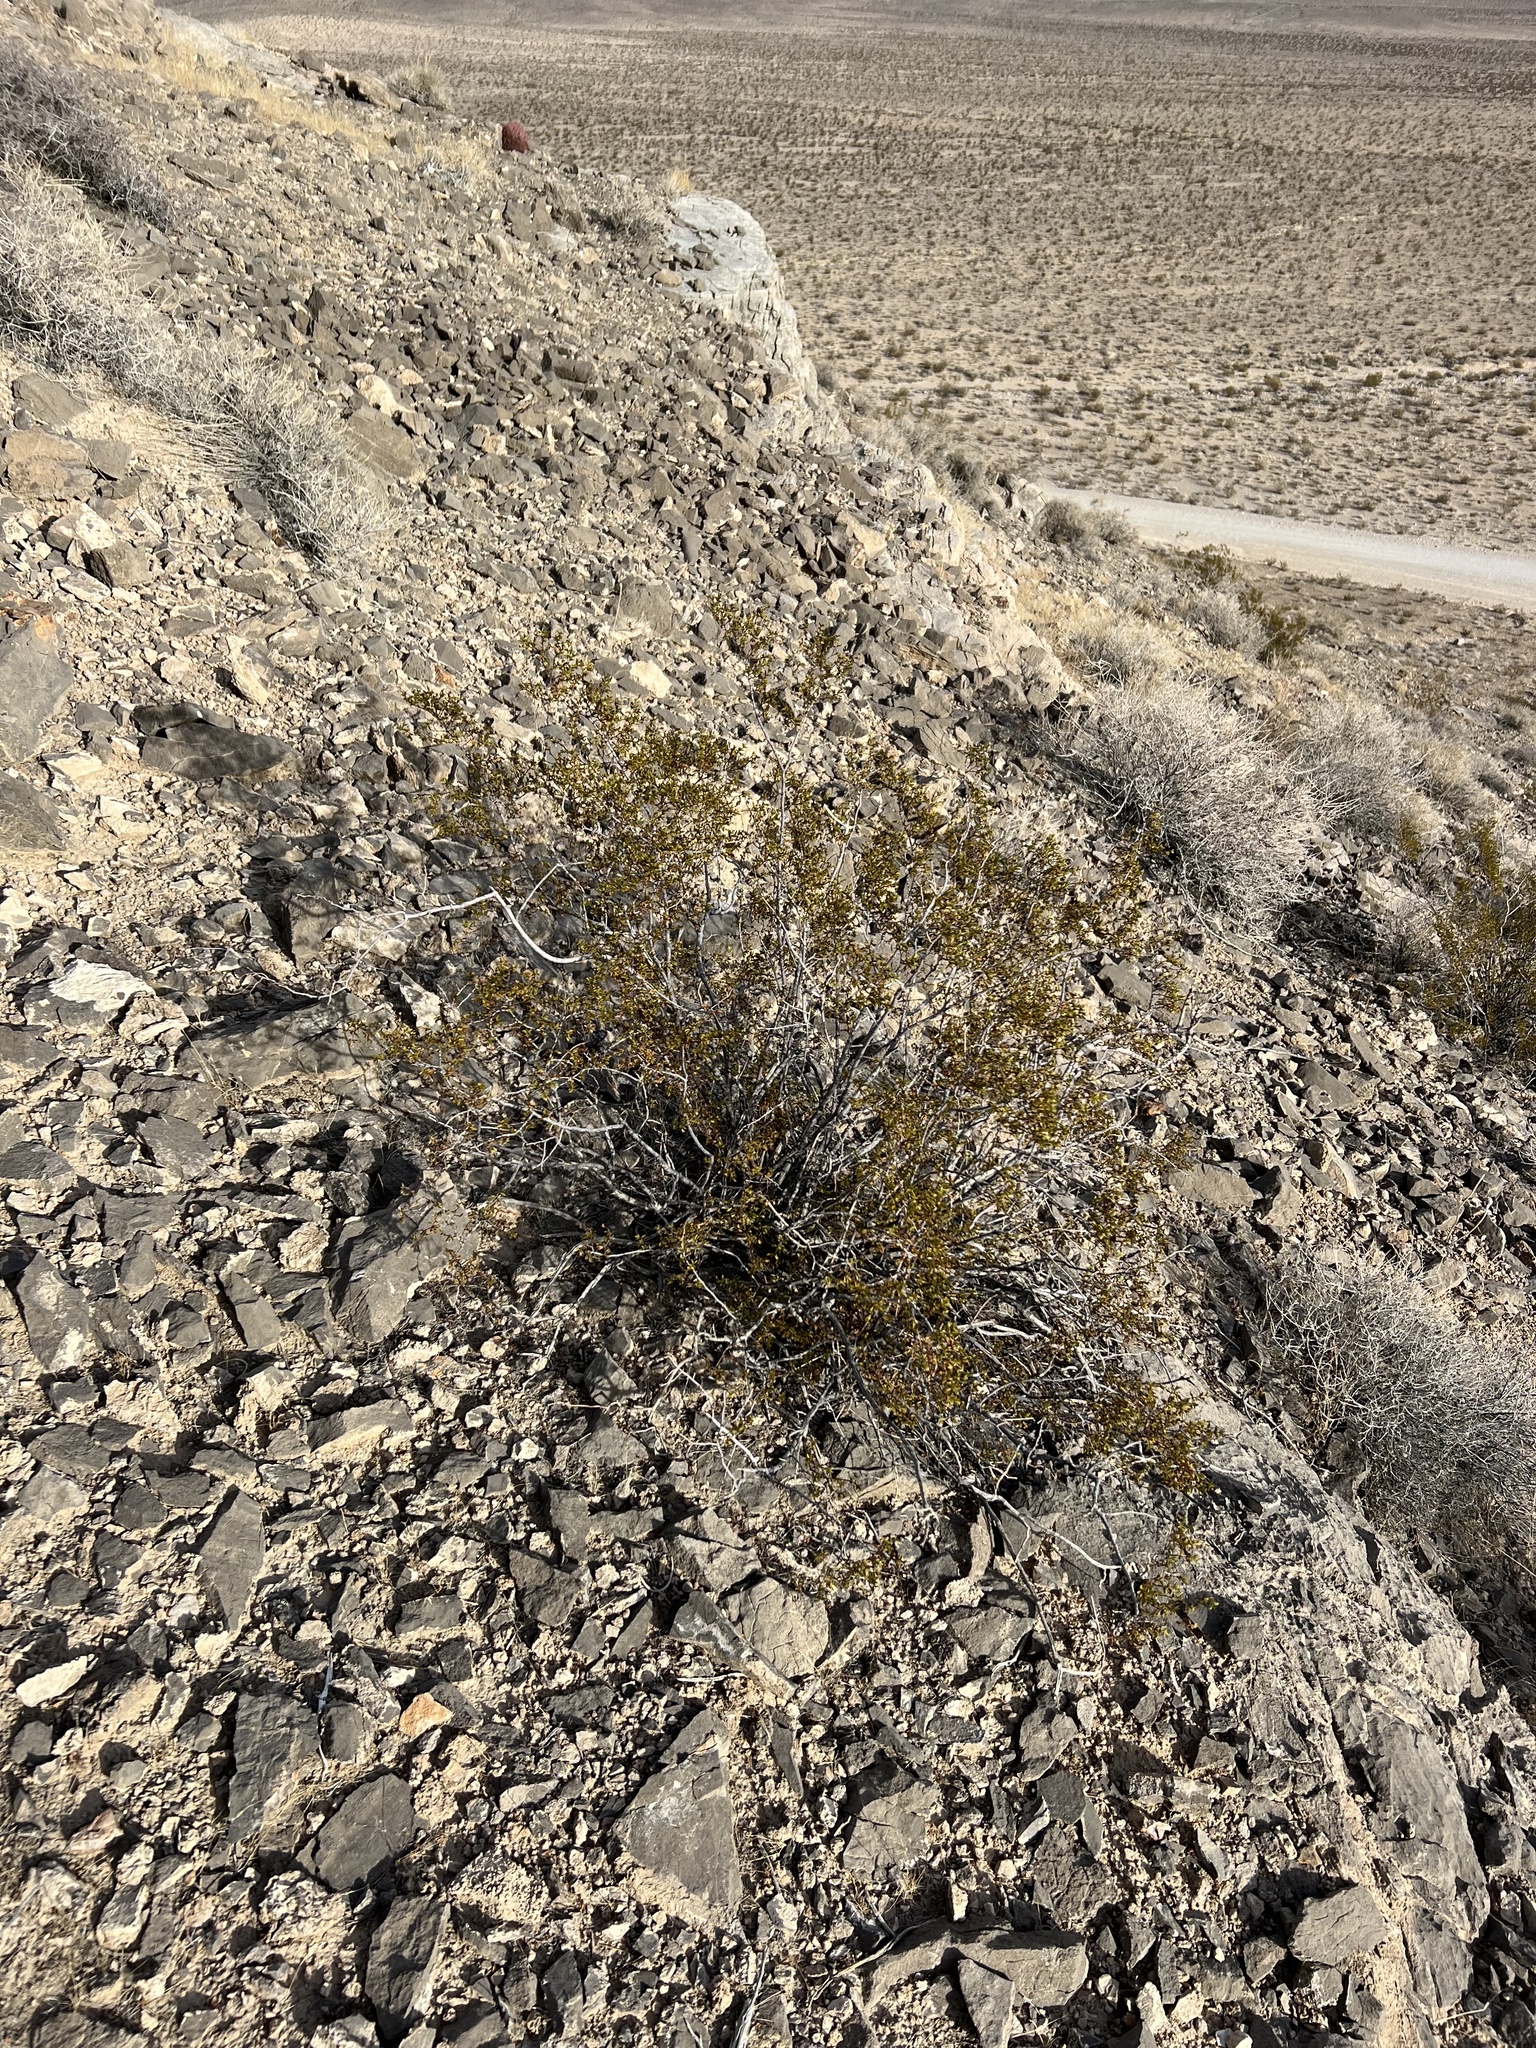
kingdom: Plantae
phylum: Tracheophyta
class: Magnoliopsida
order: Zygophyllales
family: Zygophyllaceae
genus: Larrea
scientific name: Larrea tridentata
